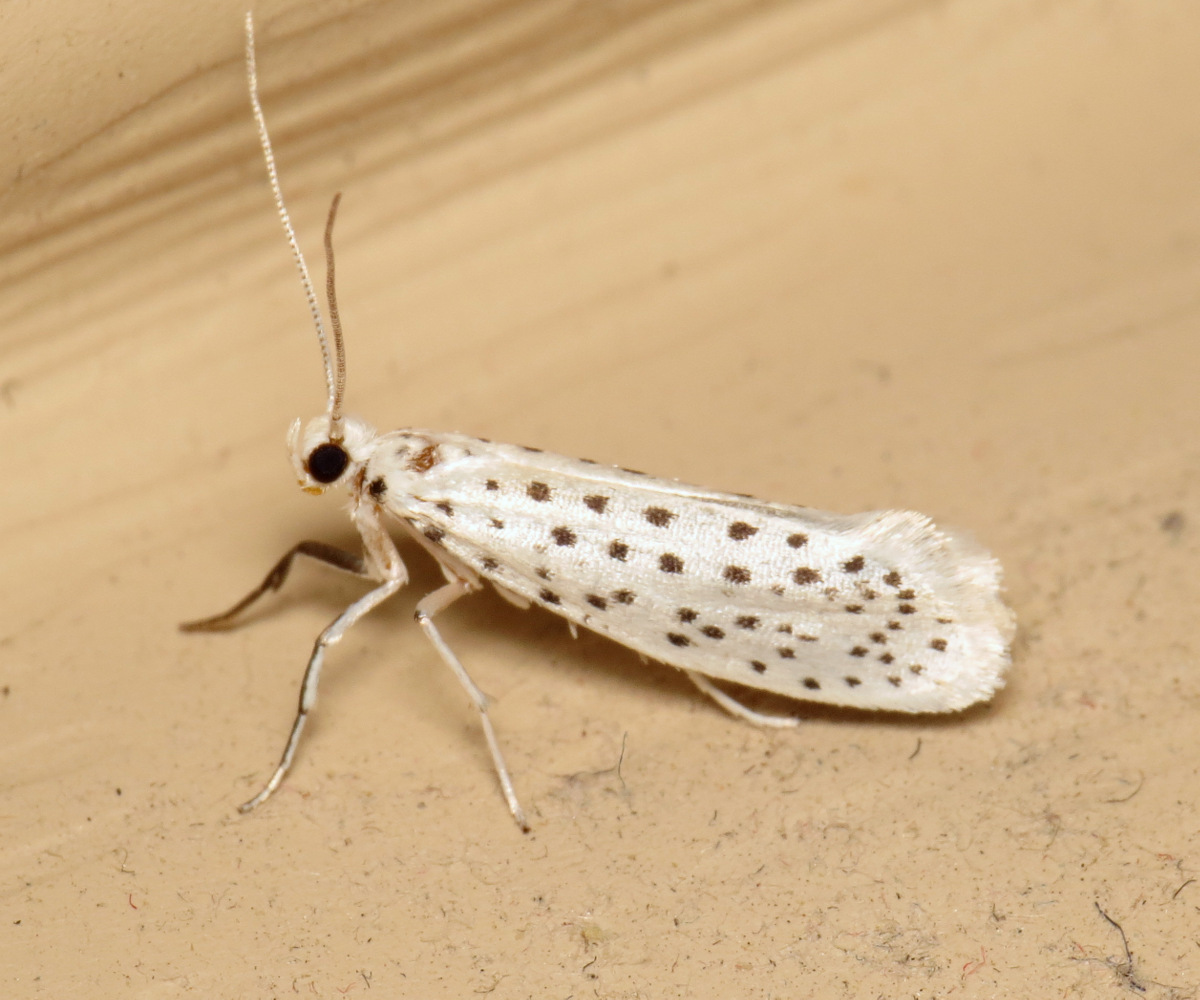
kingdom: Animalia
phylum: Arthropoda
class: Insecta
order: Lepidoptera
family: Yponomeutidae
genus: Yponomeuta
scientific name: Yponomeuta multipunctella
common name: American ermine moth
